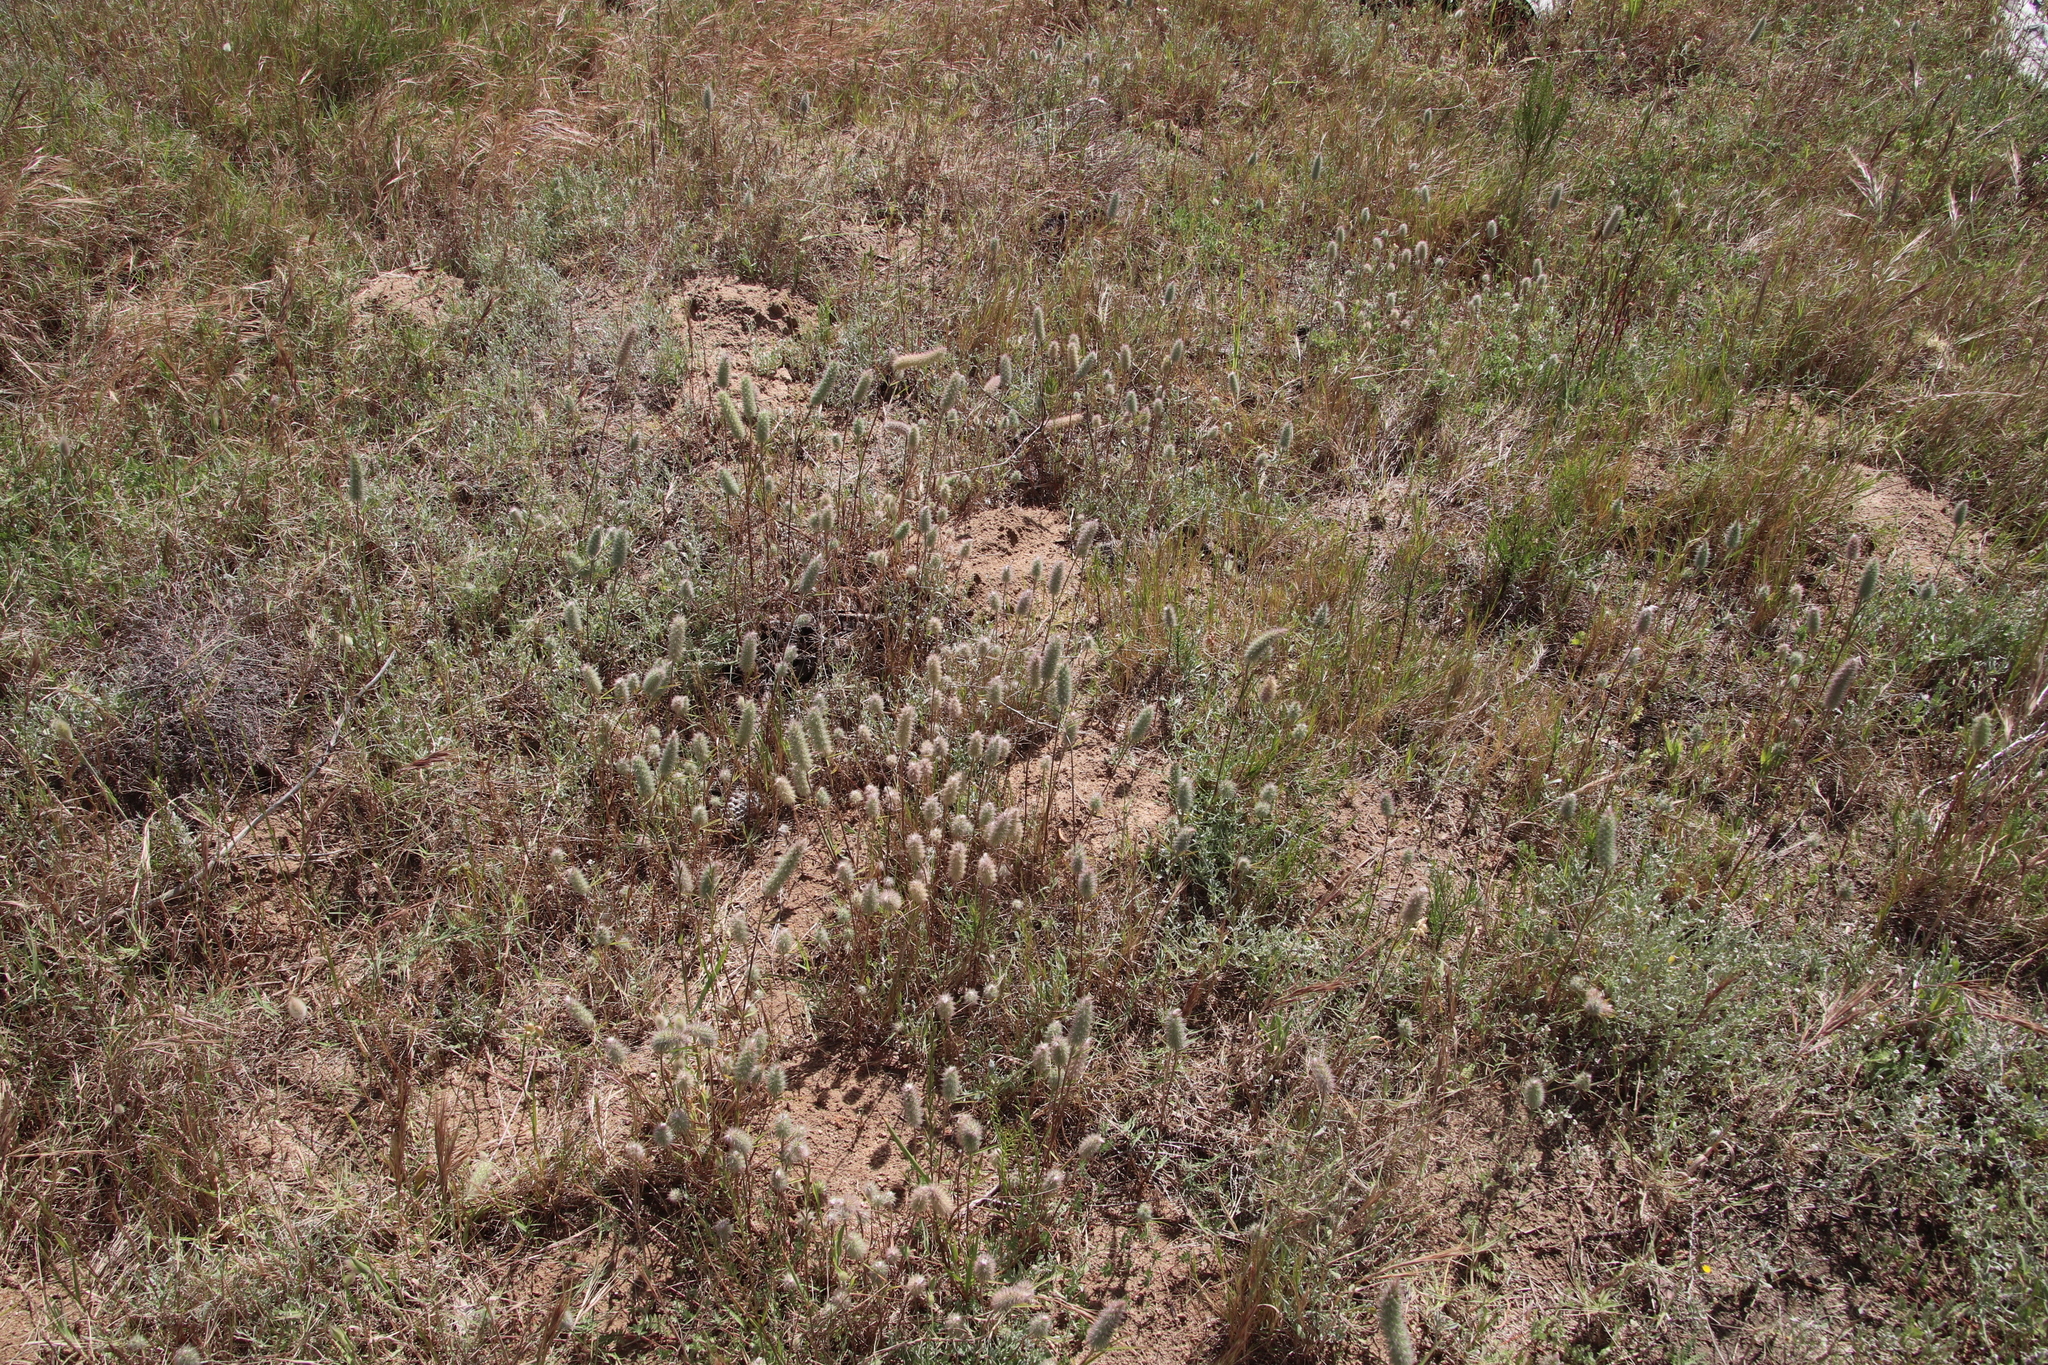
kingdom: Plantae
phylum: Tracheophyta
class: Magnoliopsida
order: Fabales
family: Fabaceae
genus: Trifolium
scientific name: Trifolium angustifolium
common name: Narrow clover
